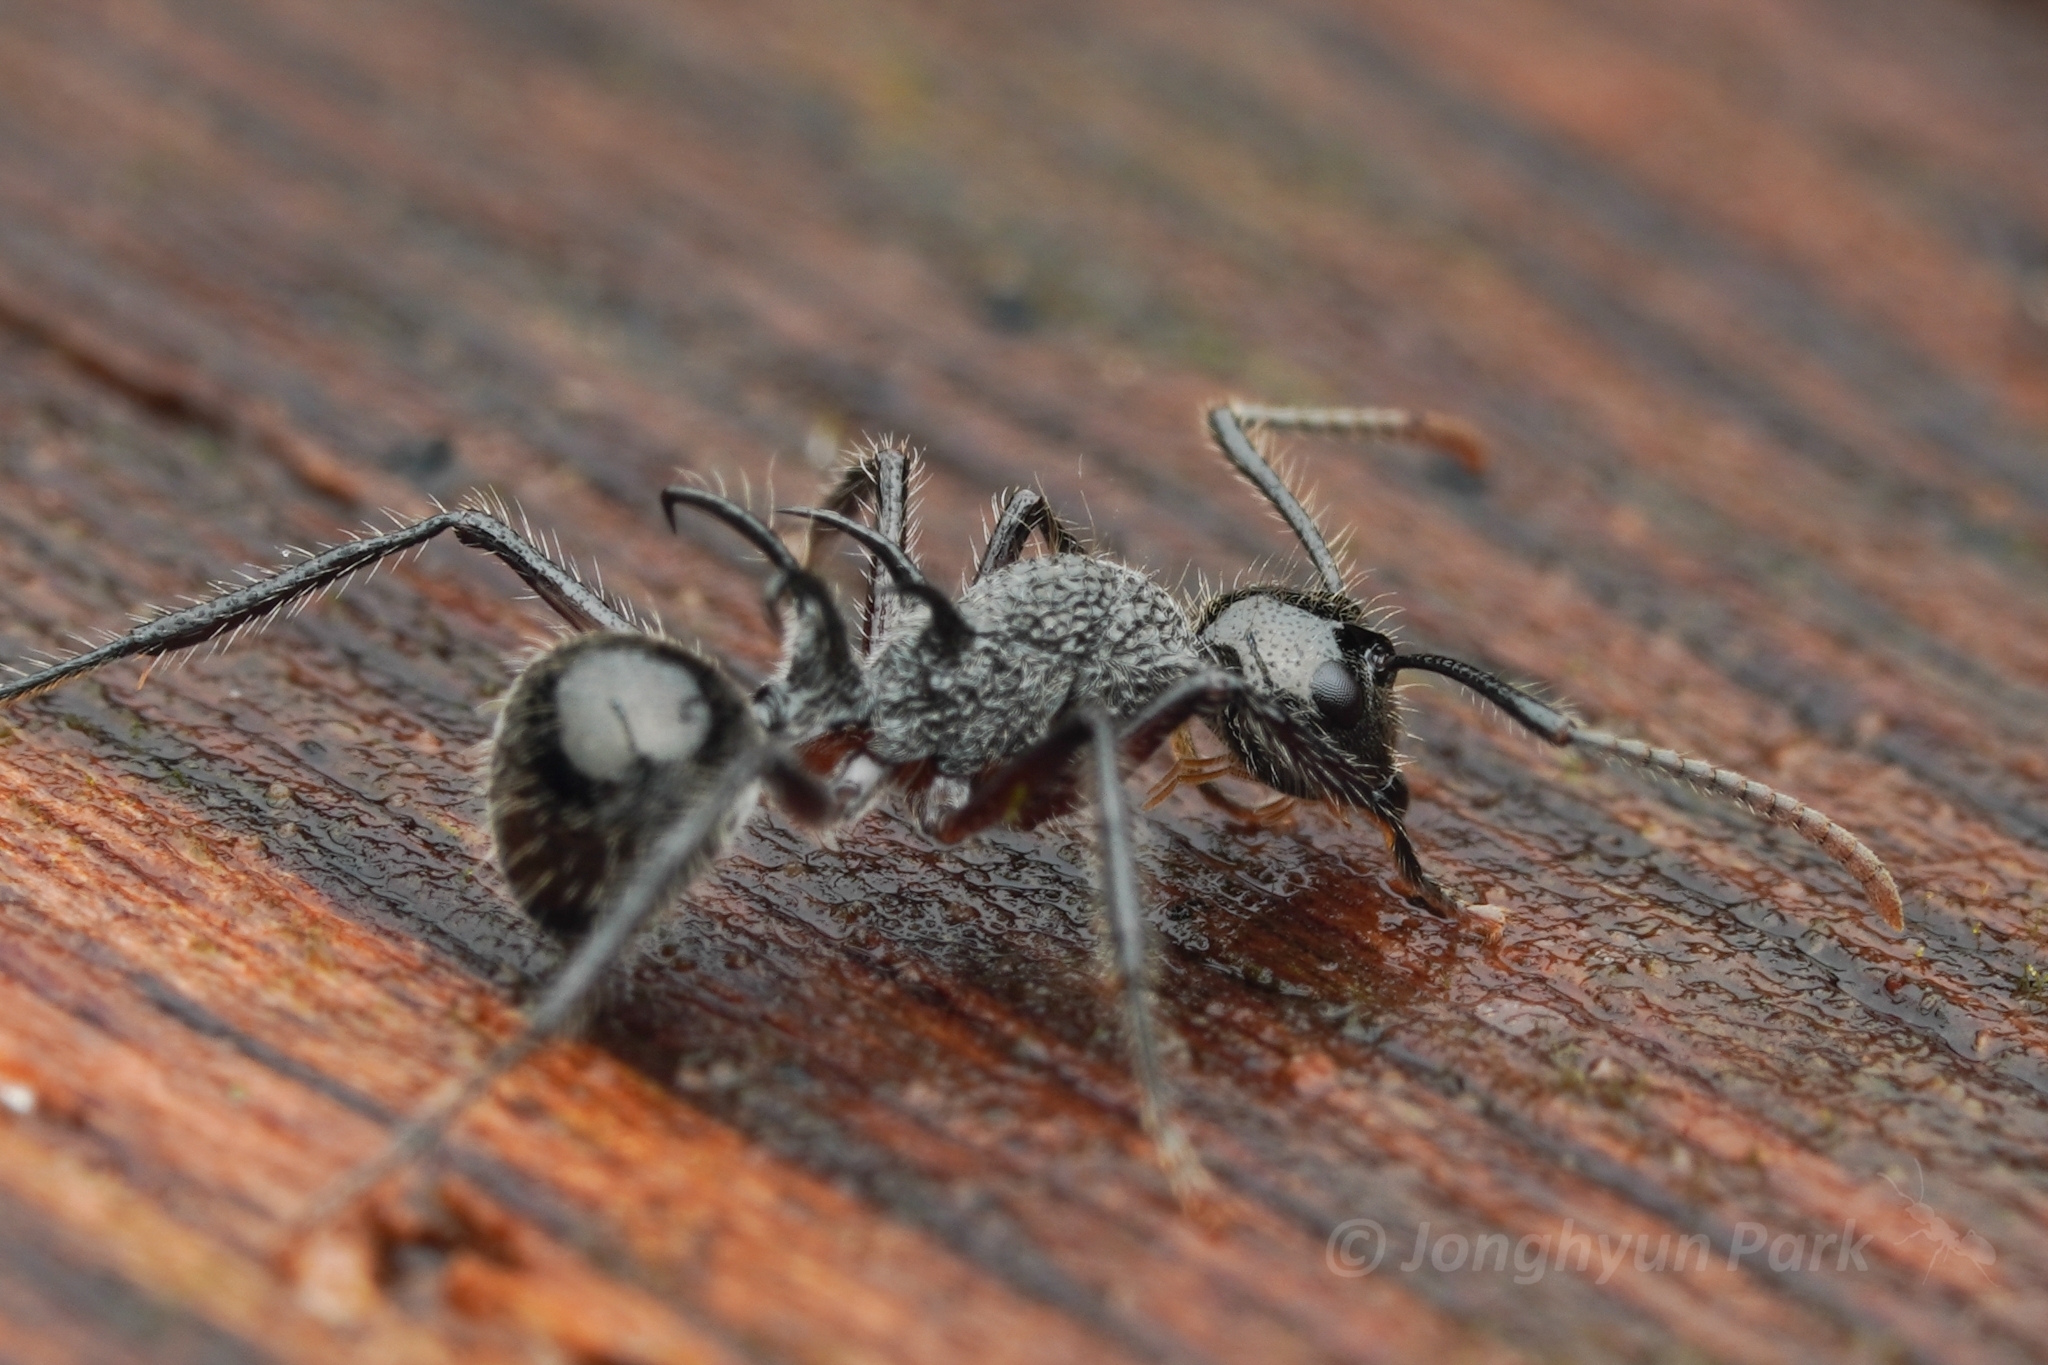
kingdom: Animalia
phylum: Arthropoda
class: Insecta
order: Hymenoptera
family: Formicidae
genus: Polyrhachis
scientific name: Polyrhachis furcata
